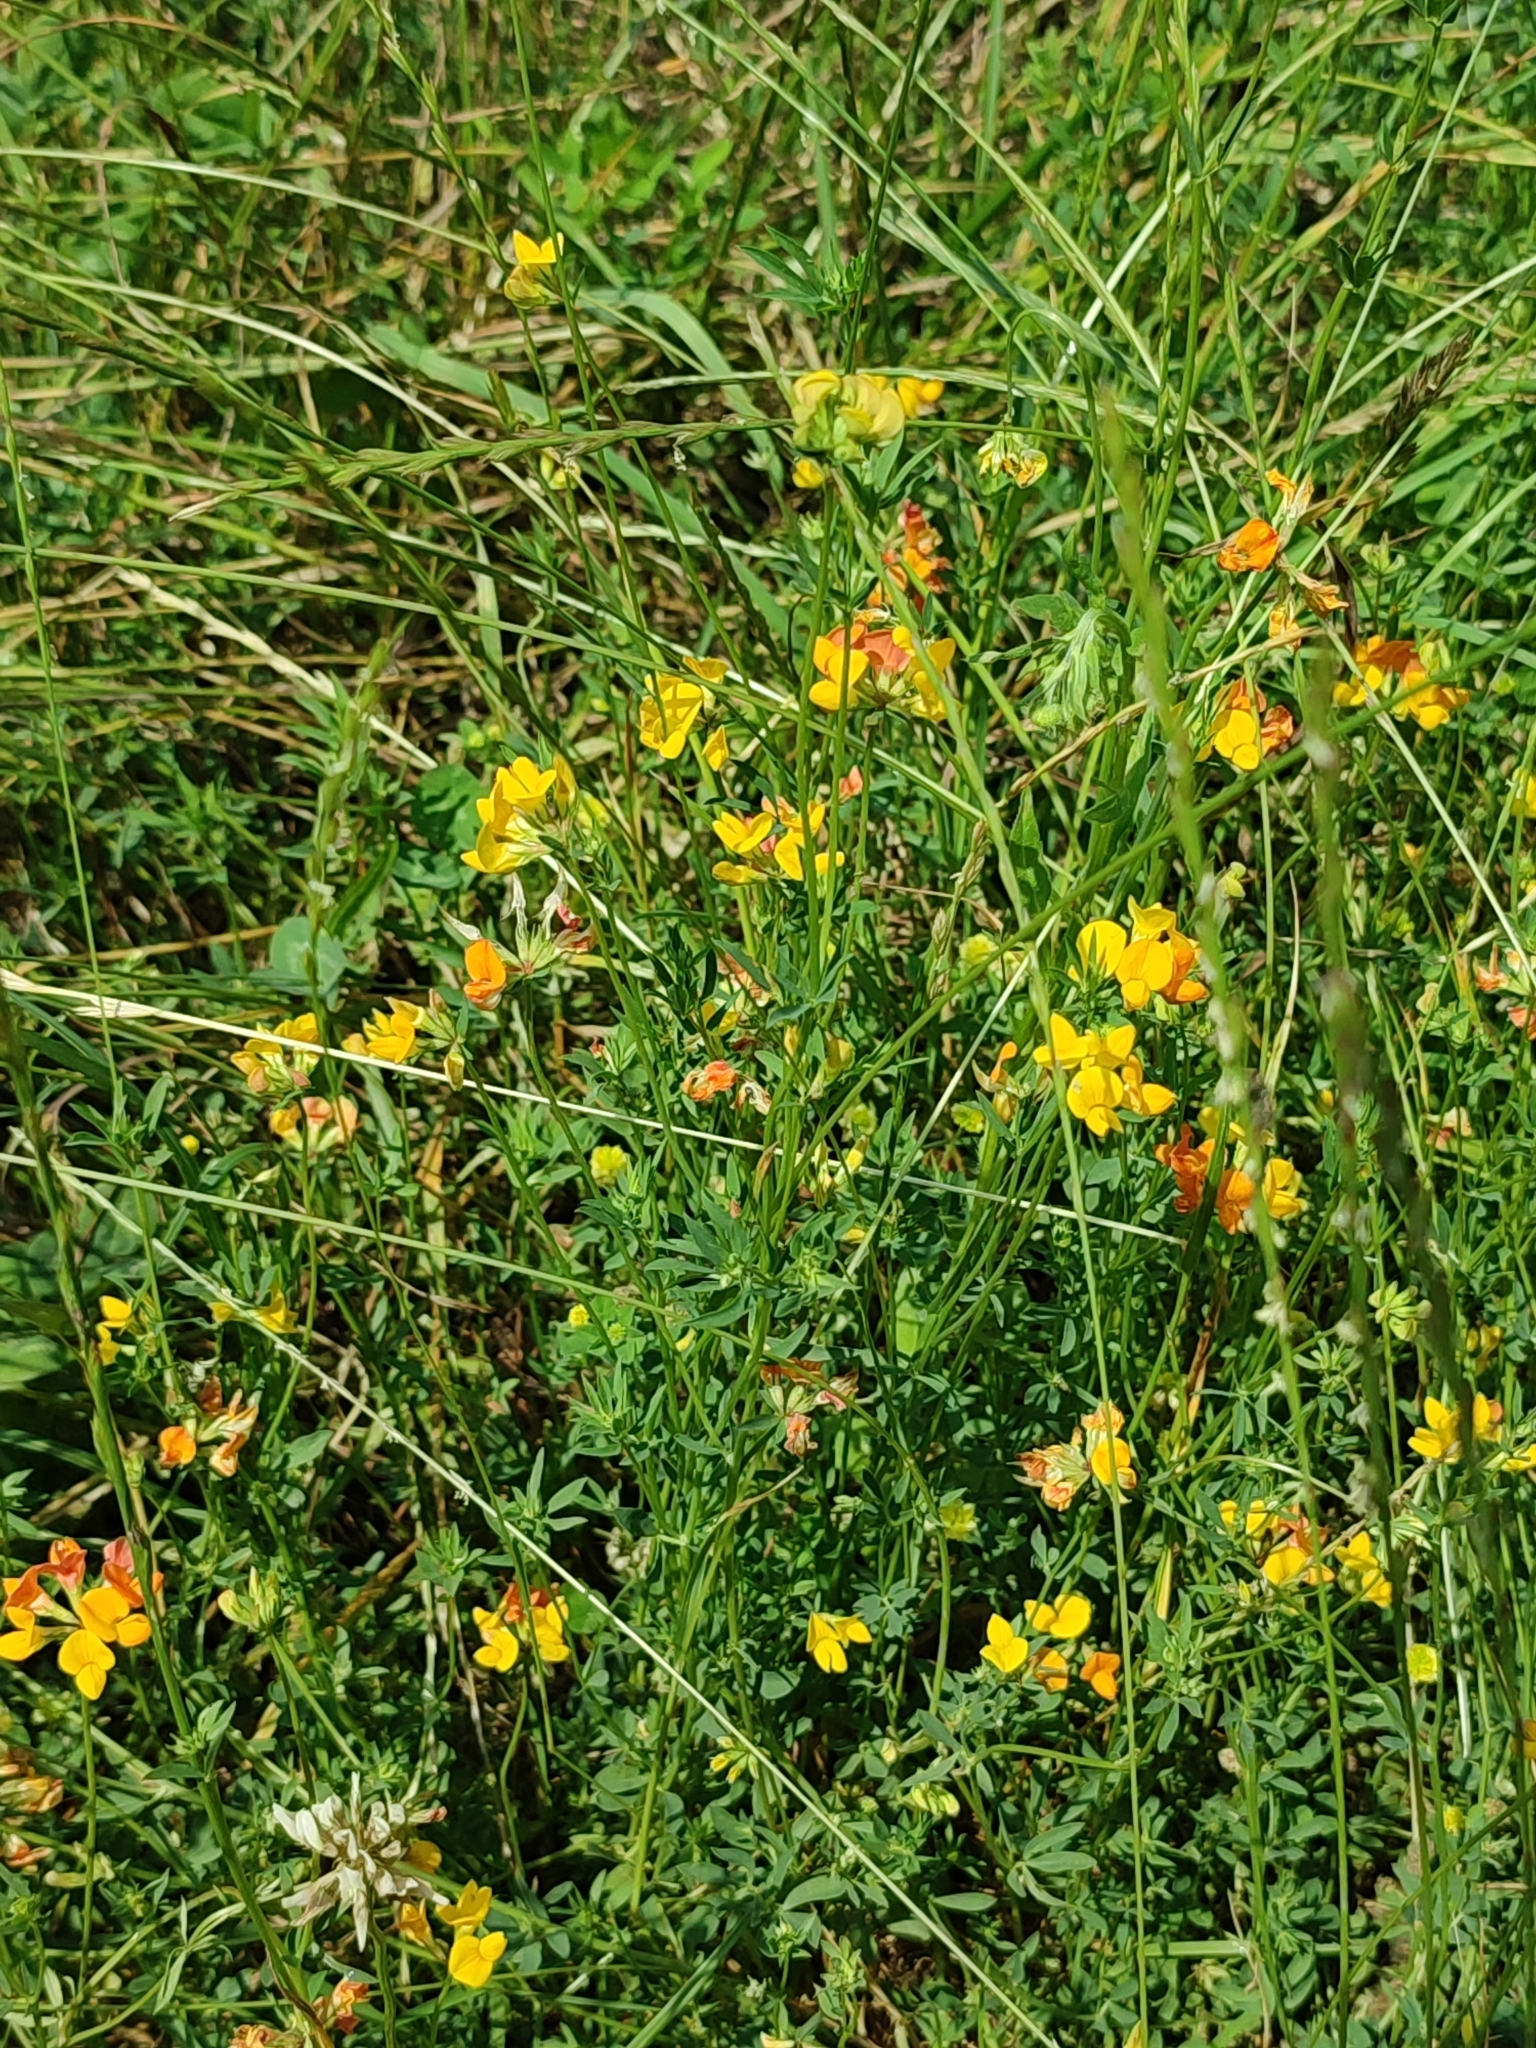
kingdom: Plantae
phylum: Tracheophyta
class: Magnoliopsida
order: Fabales
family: Fabaceae
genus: Lotus
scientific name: Lotus corniculatus
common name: Common bird's-foot-trefoil
